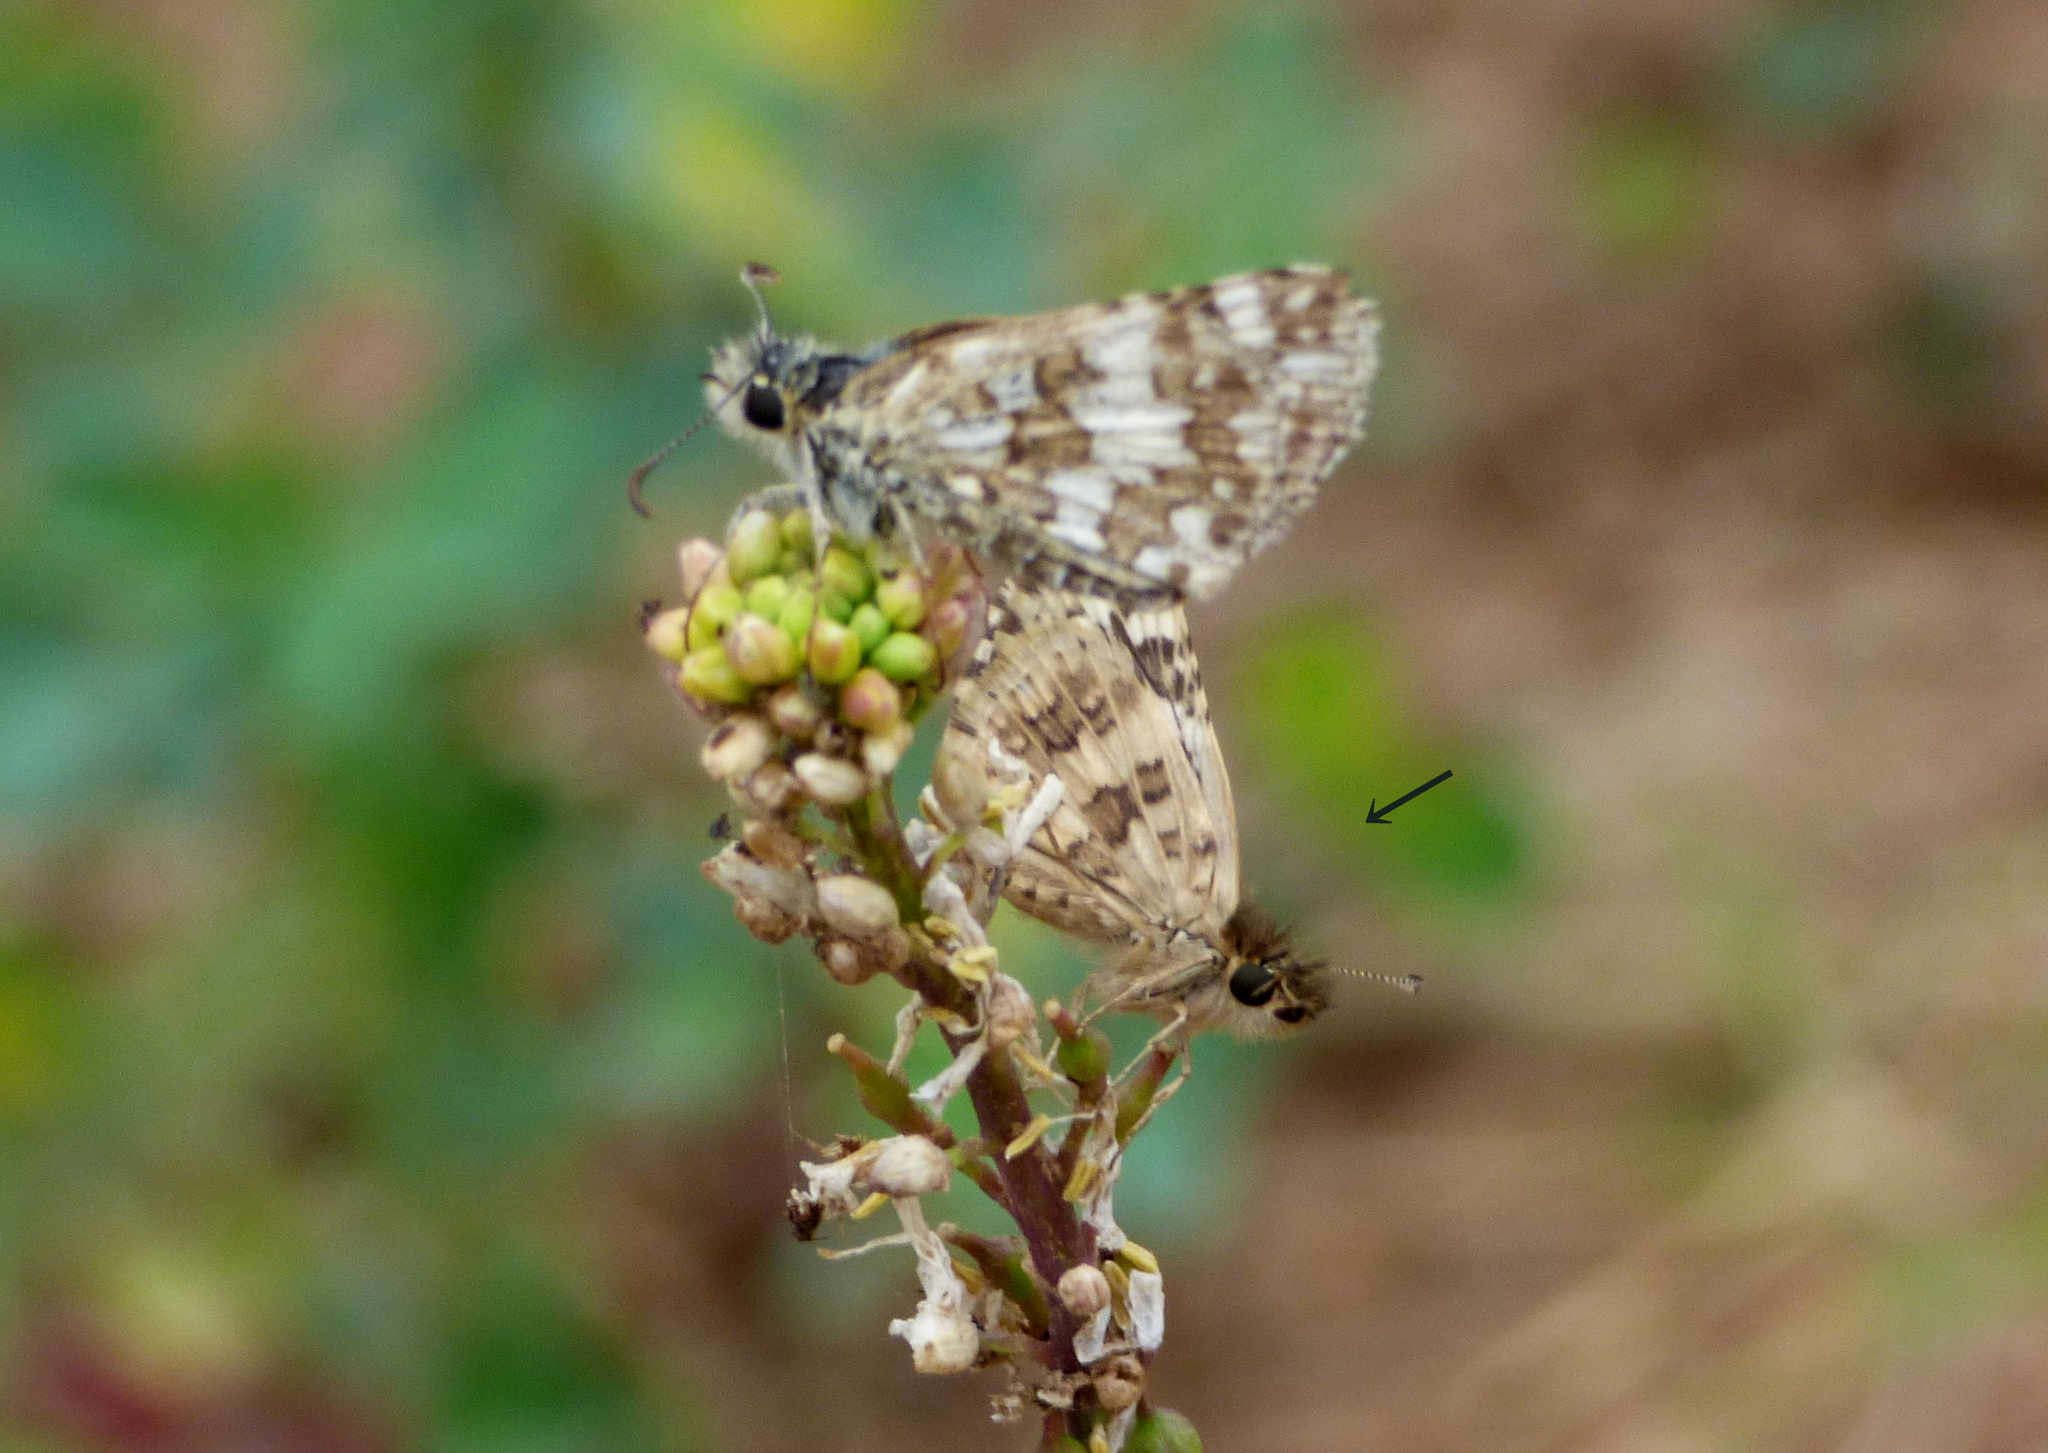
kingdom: Animalia
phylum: Arthropoda
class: Insecta
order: Lepidoptera
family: Hesperiidae
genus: Burnsius
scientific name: Burnsius orcynoides
